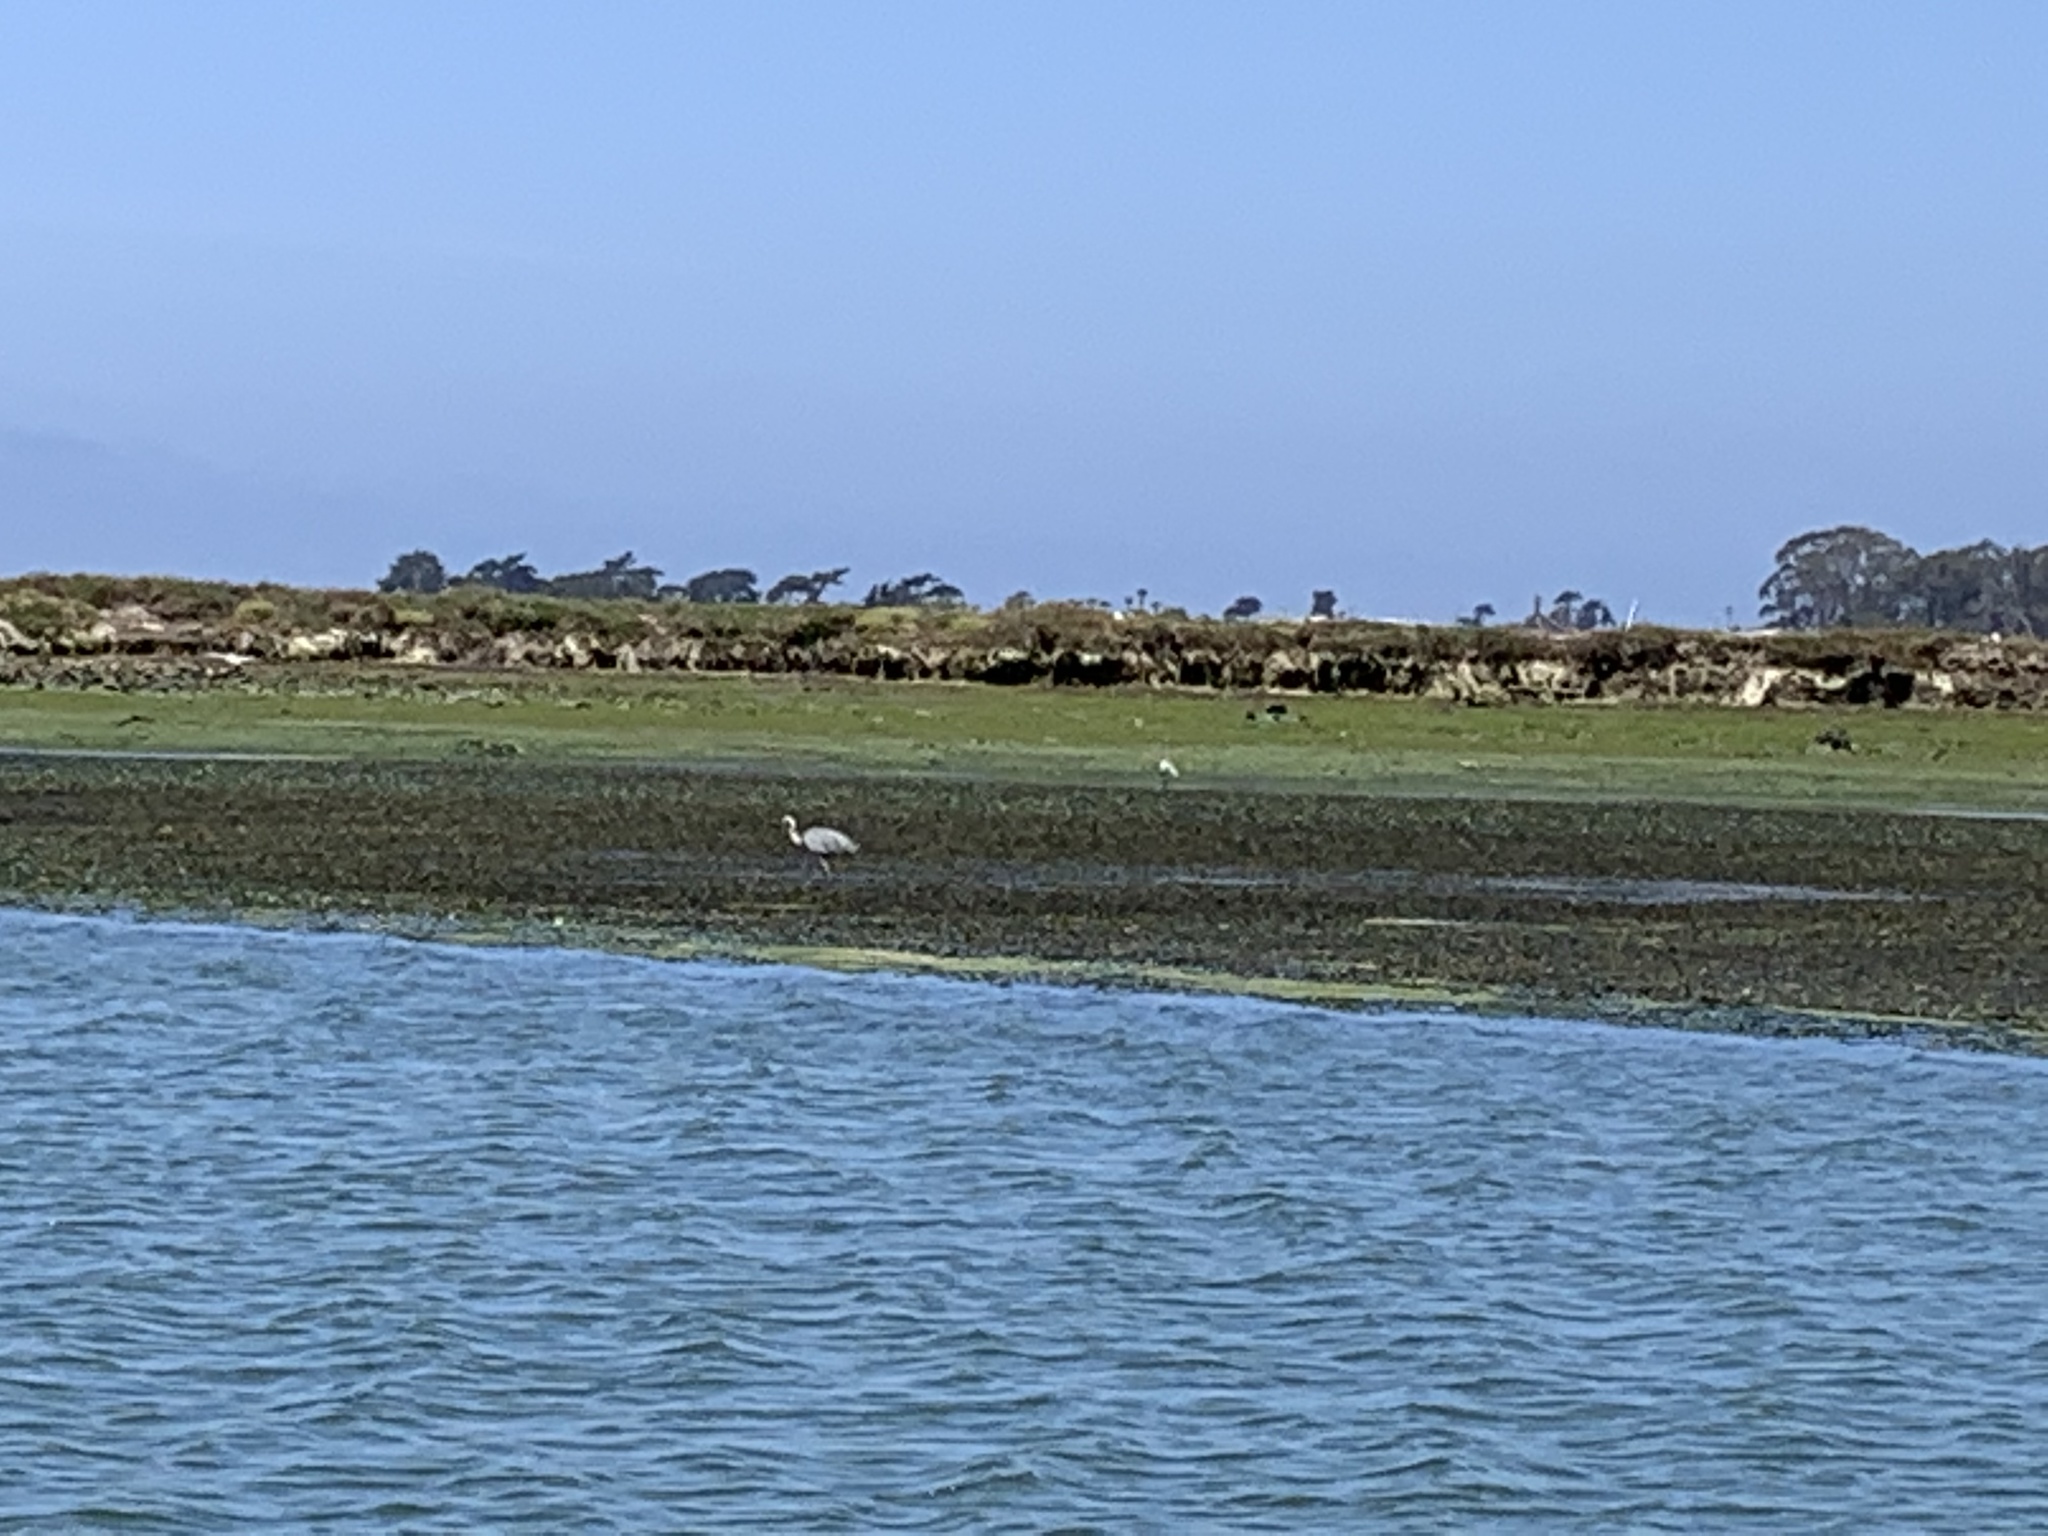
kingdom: Animalia
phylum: Chordata
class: Aves
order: Pelecaniformes
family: Ardeidae
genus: Ardea
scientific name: Ardea herodias
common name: Great blue heron
